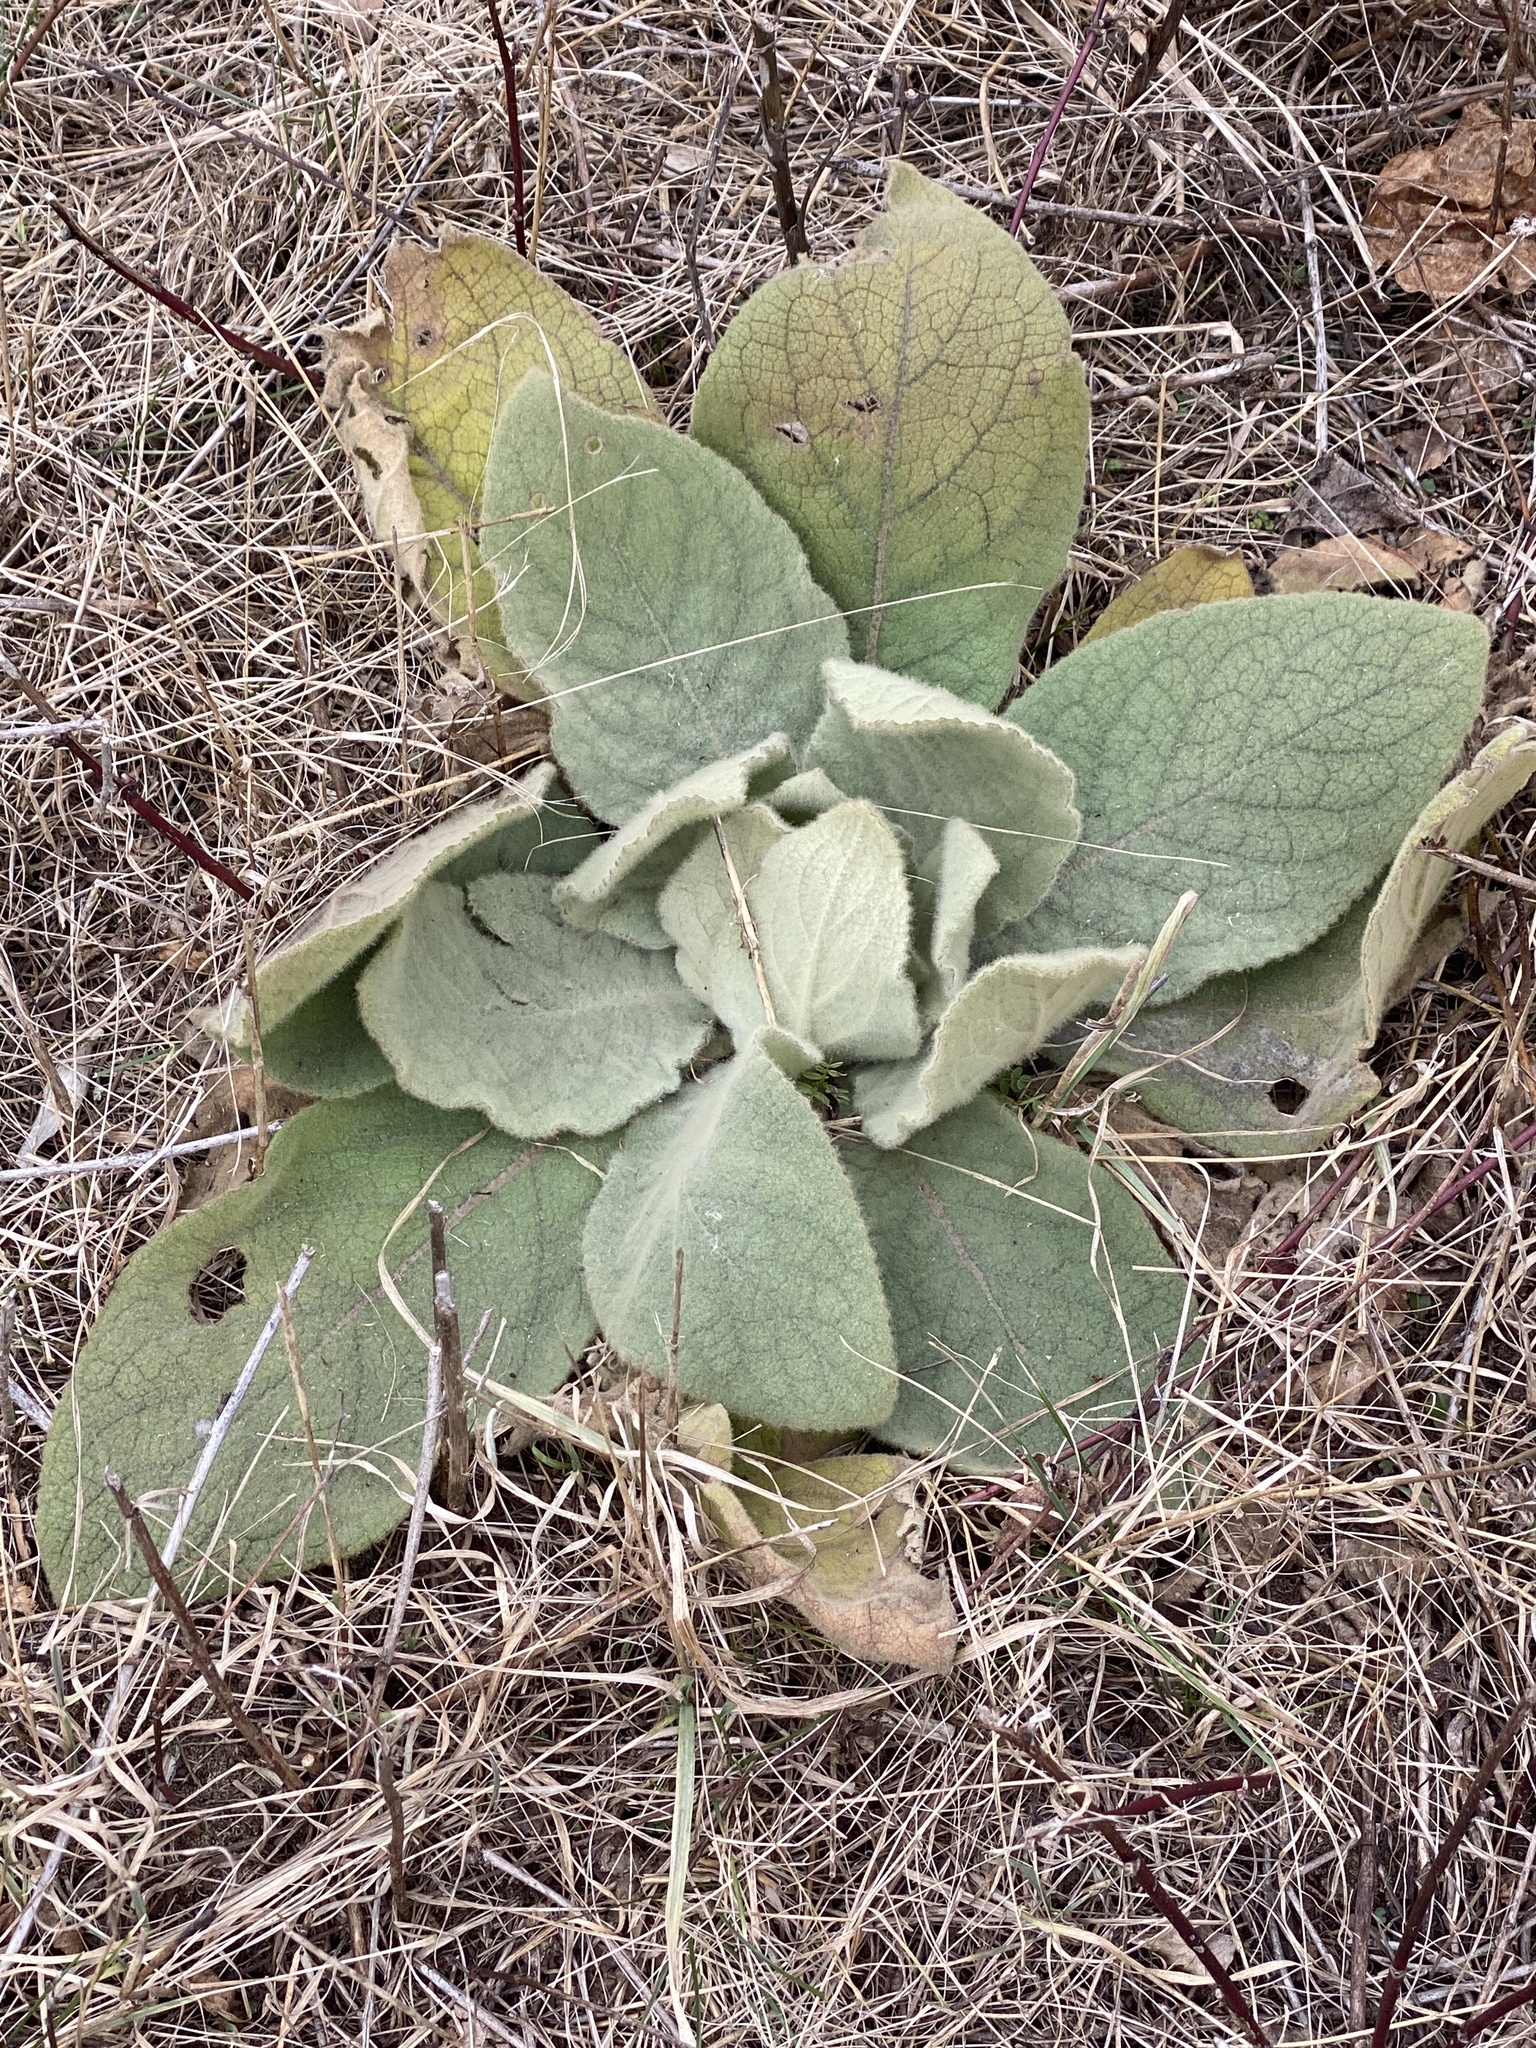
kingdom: Plantae
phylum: Tracheophyta
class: Magnoliopsida
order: Lamiales
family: Scrophulariaceae
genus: Verbascum
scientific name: Verbascum thapsus
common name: Common mullein
